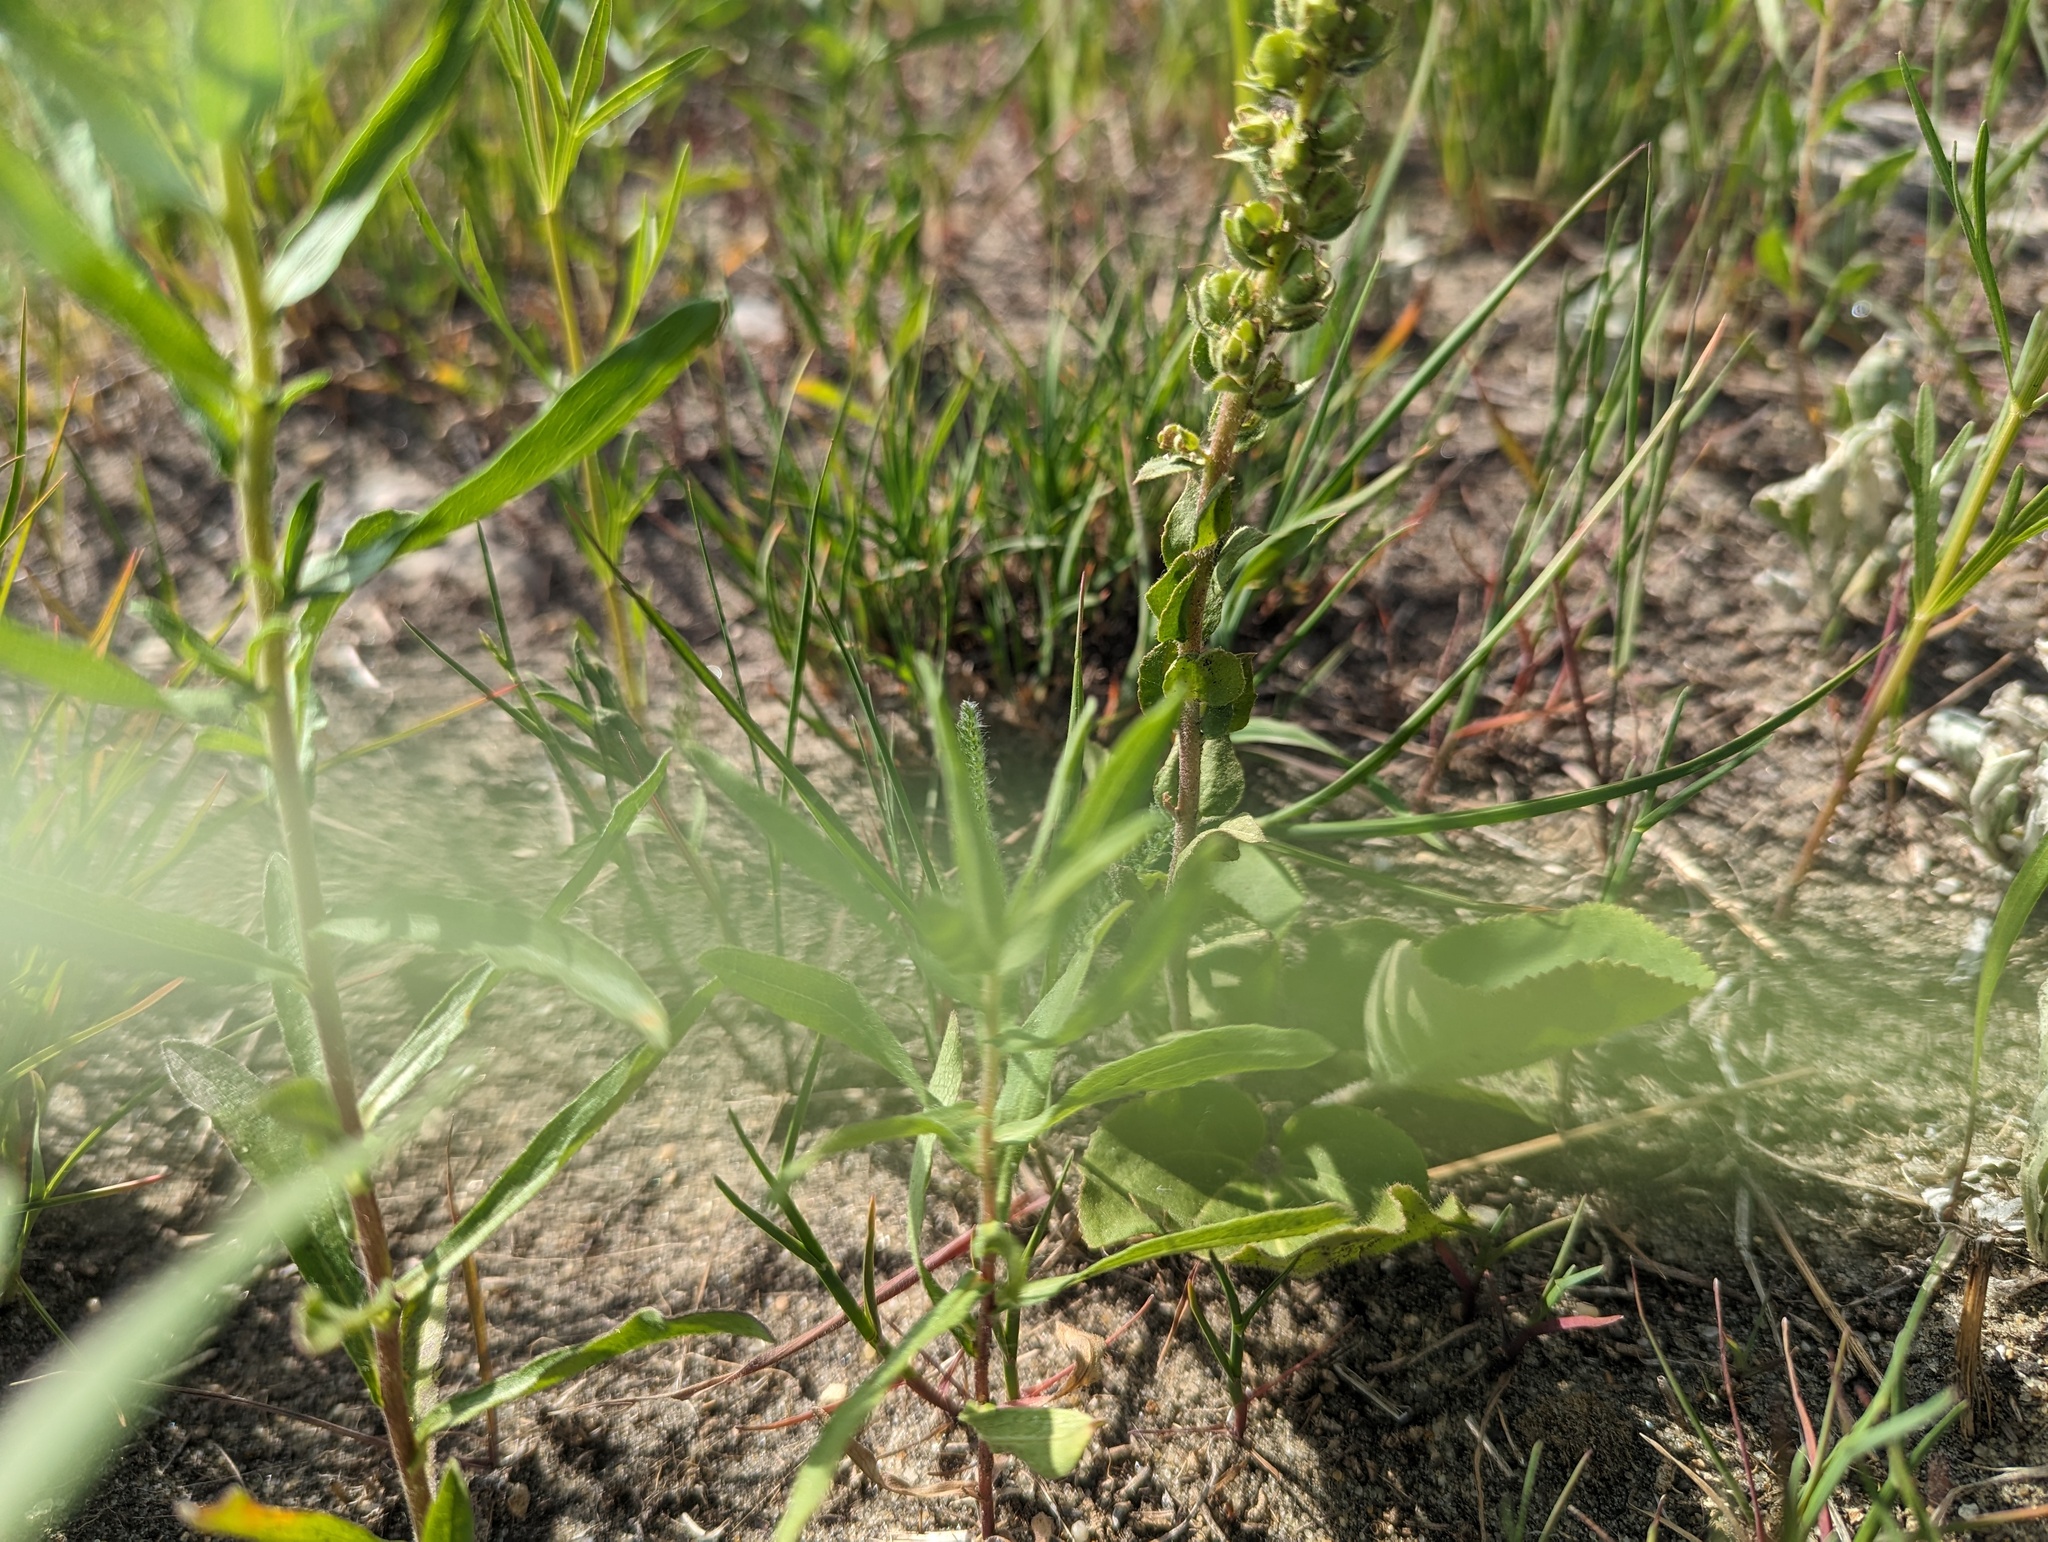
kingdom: Plantae
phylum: Tracheophyta
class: Magnoliopsida
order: Lamiales
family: Plantaginaceae
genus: Synthyris
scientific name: Synthyris bullii
